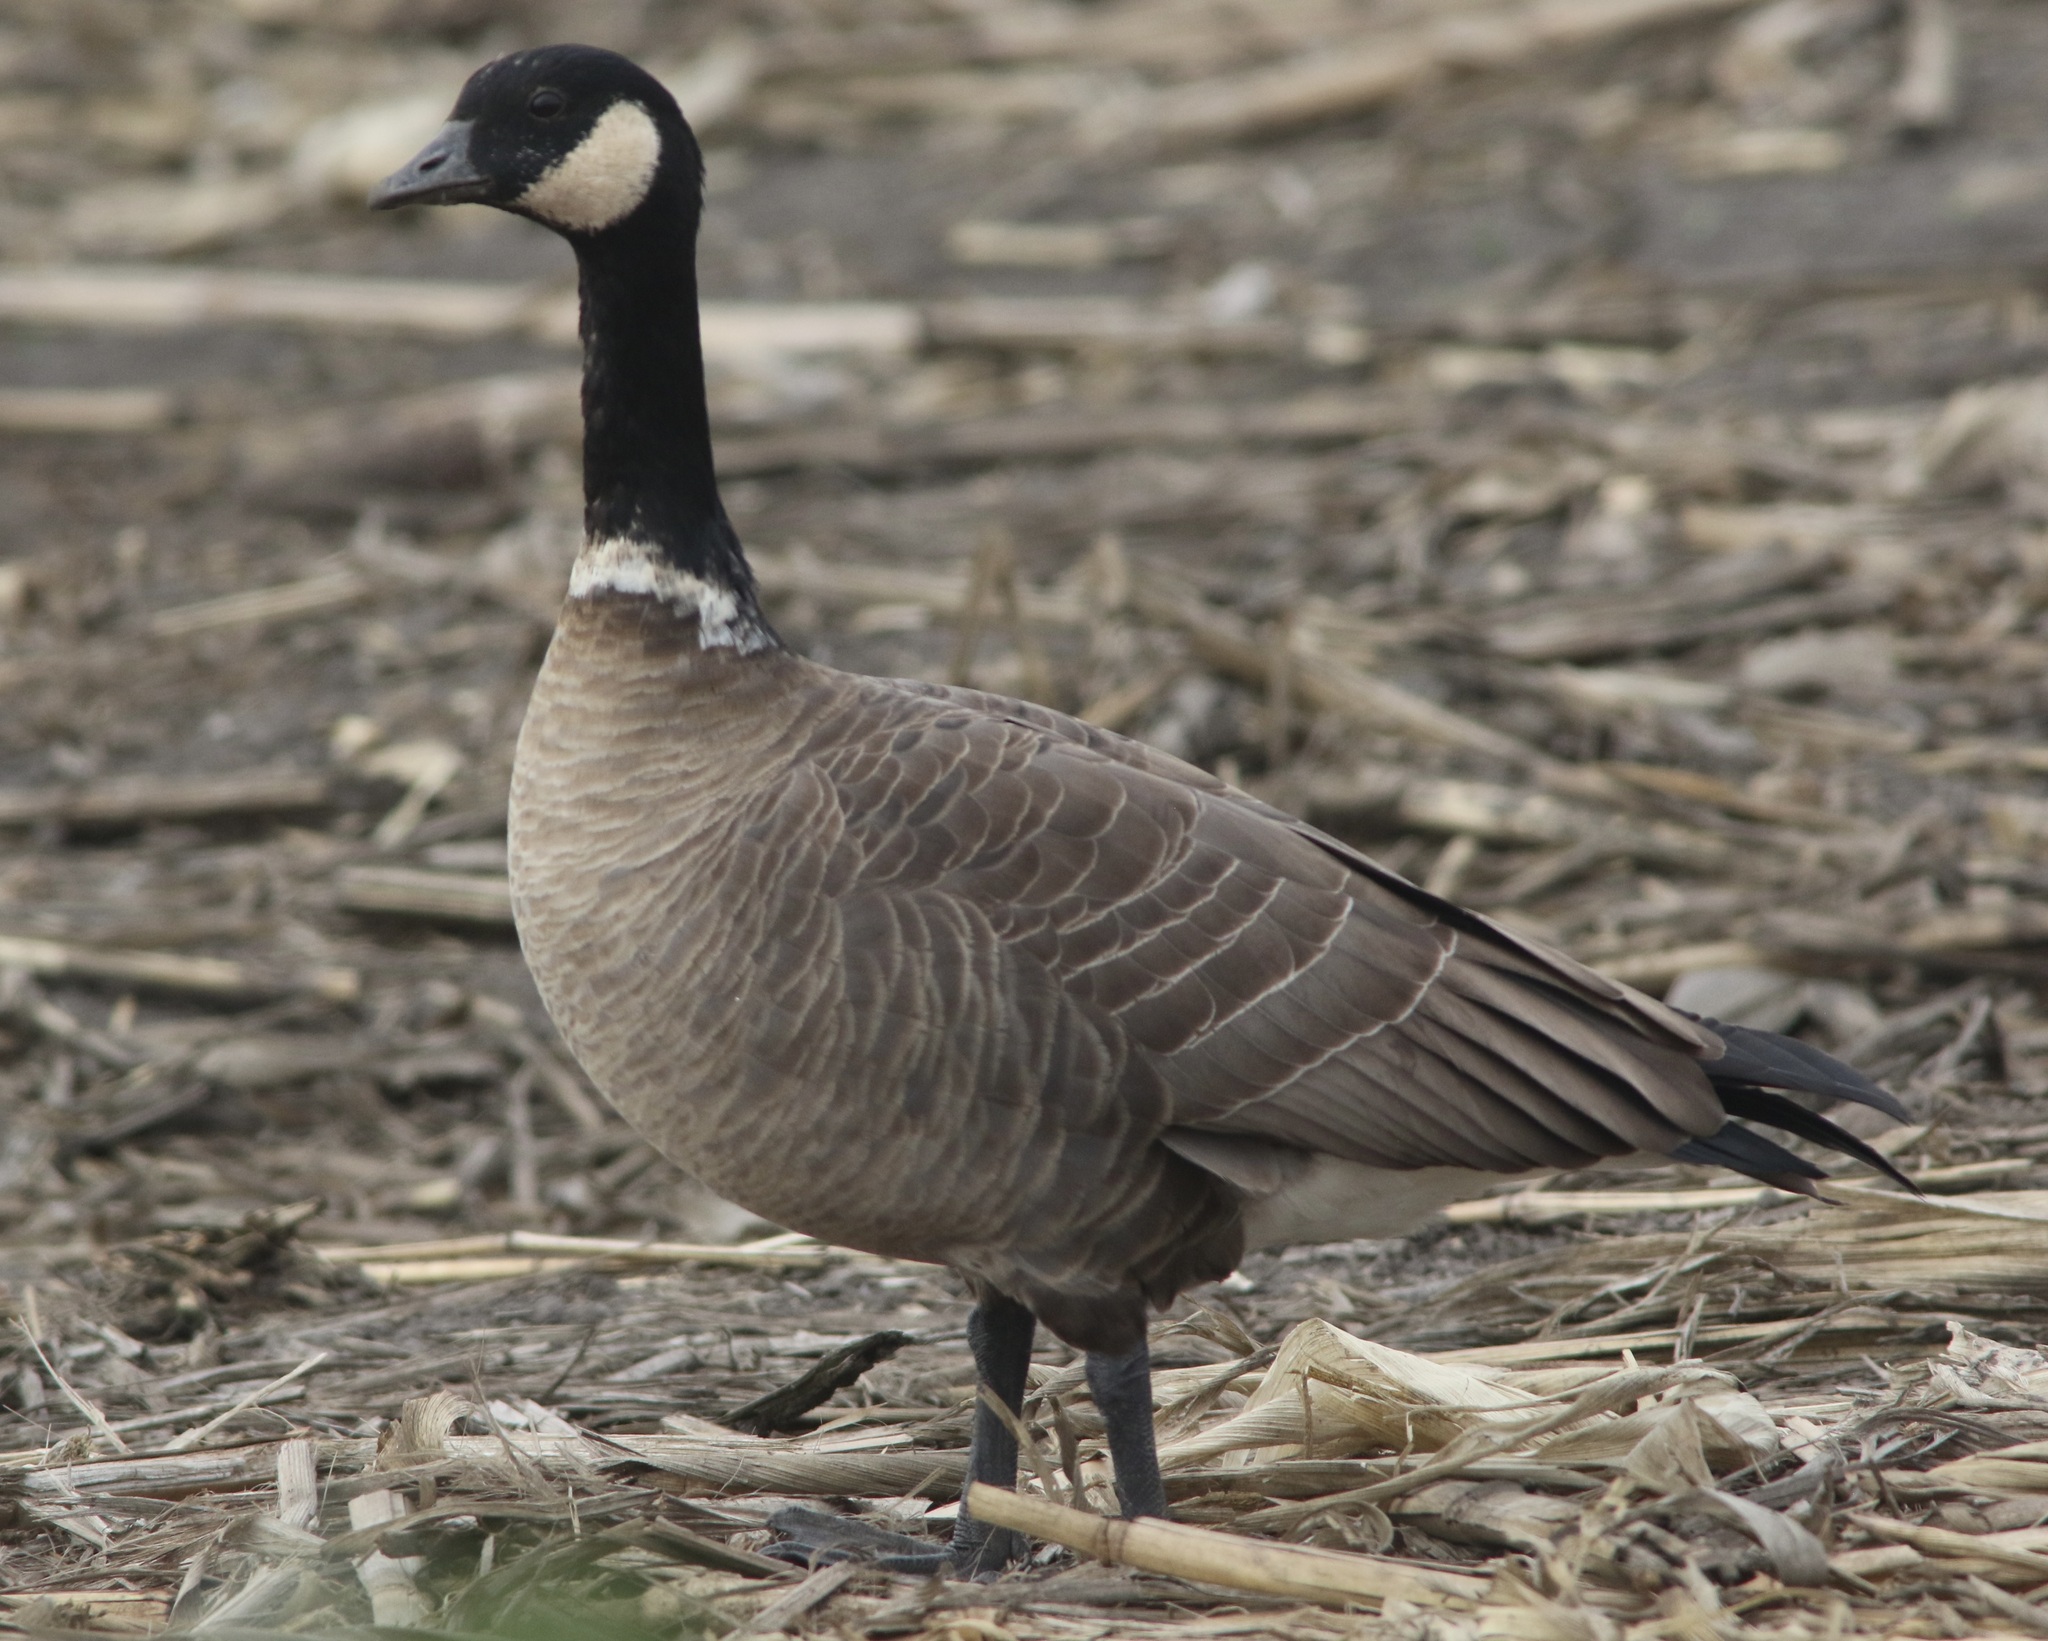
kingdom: Animalia
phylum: Chordata
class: Aves
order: Anseriformes
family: Anatidae
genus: Branta
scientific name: Branta hutchinsii
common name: Cackling goose
